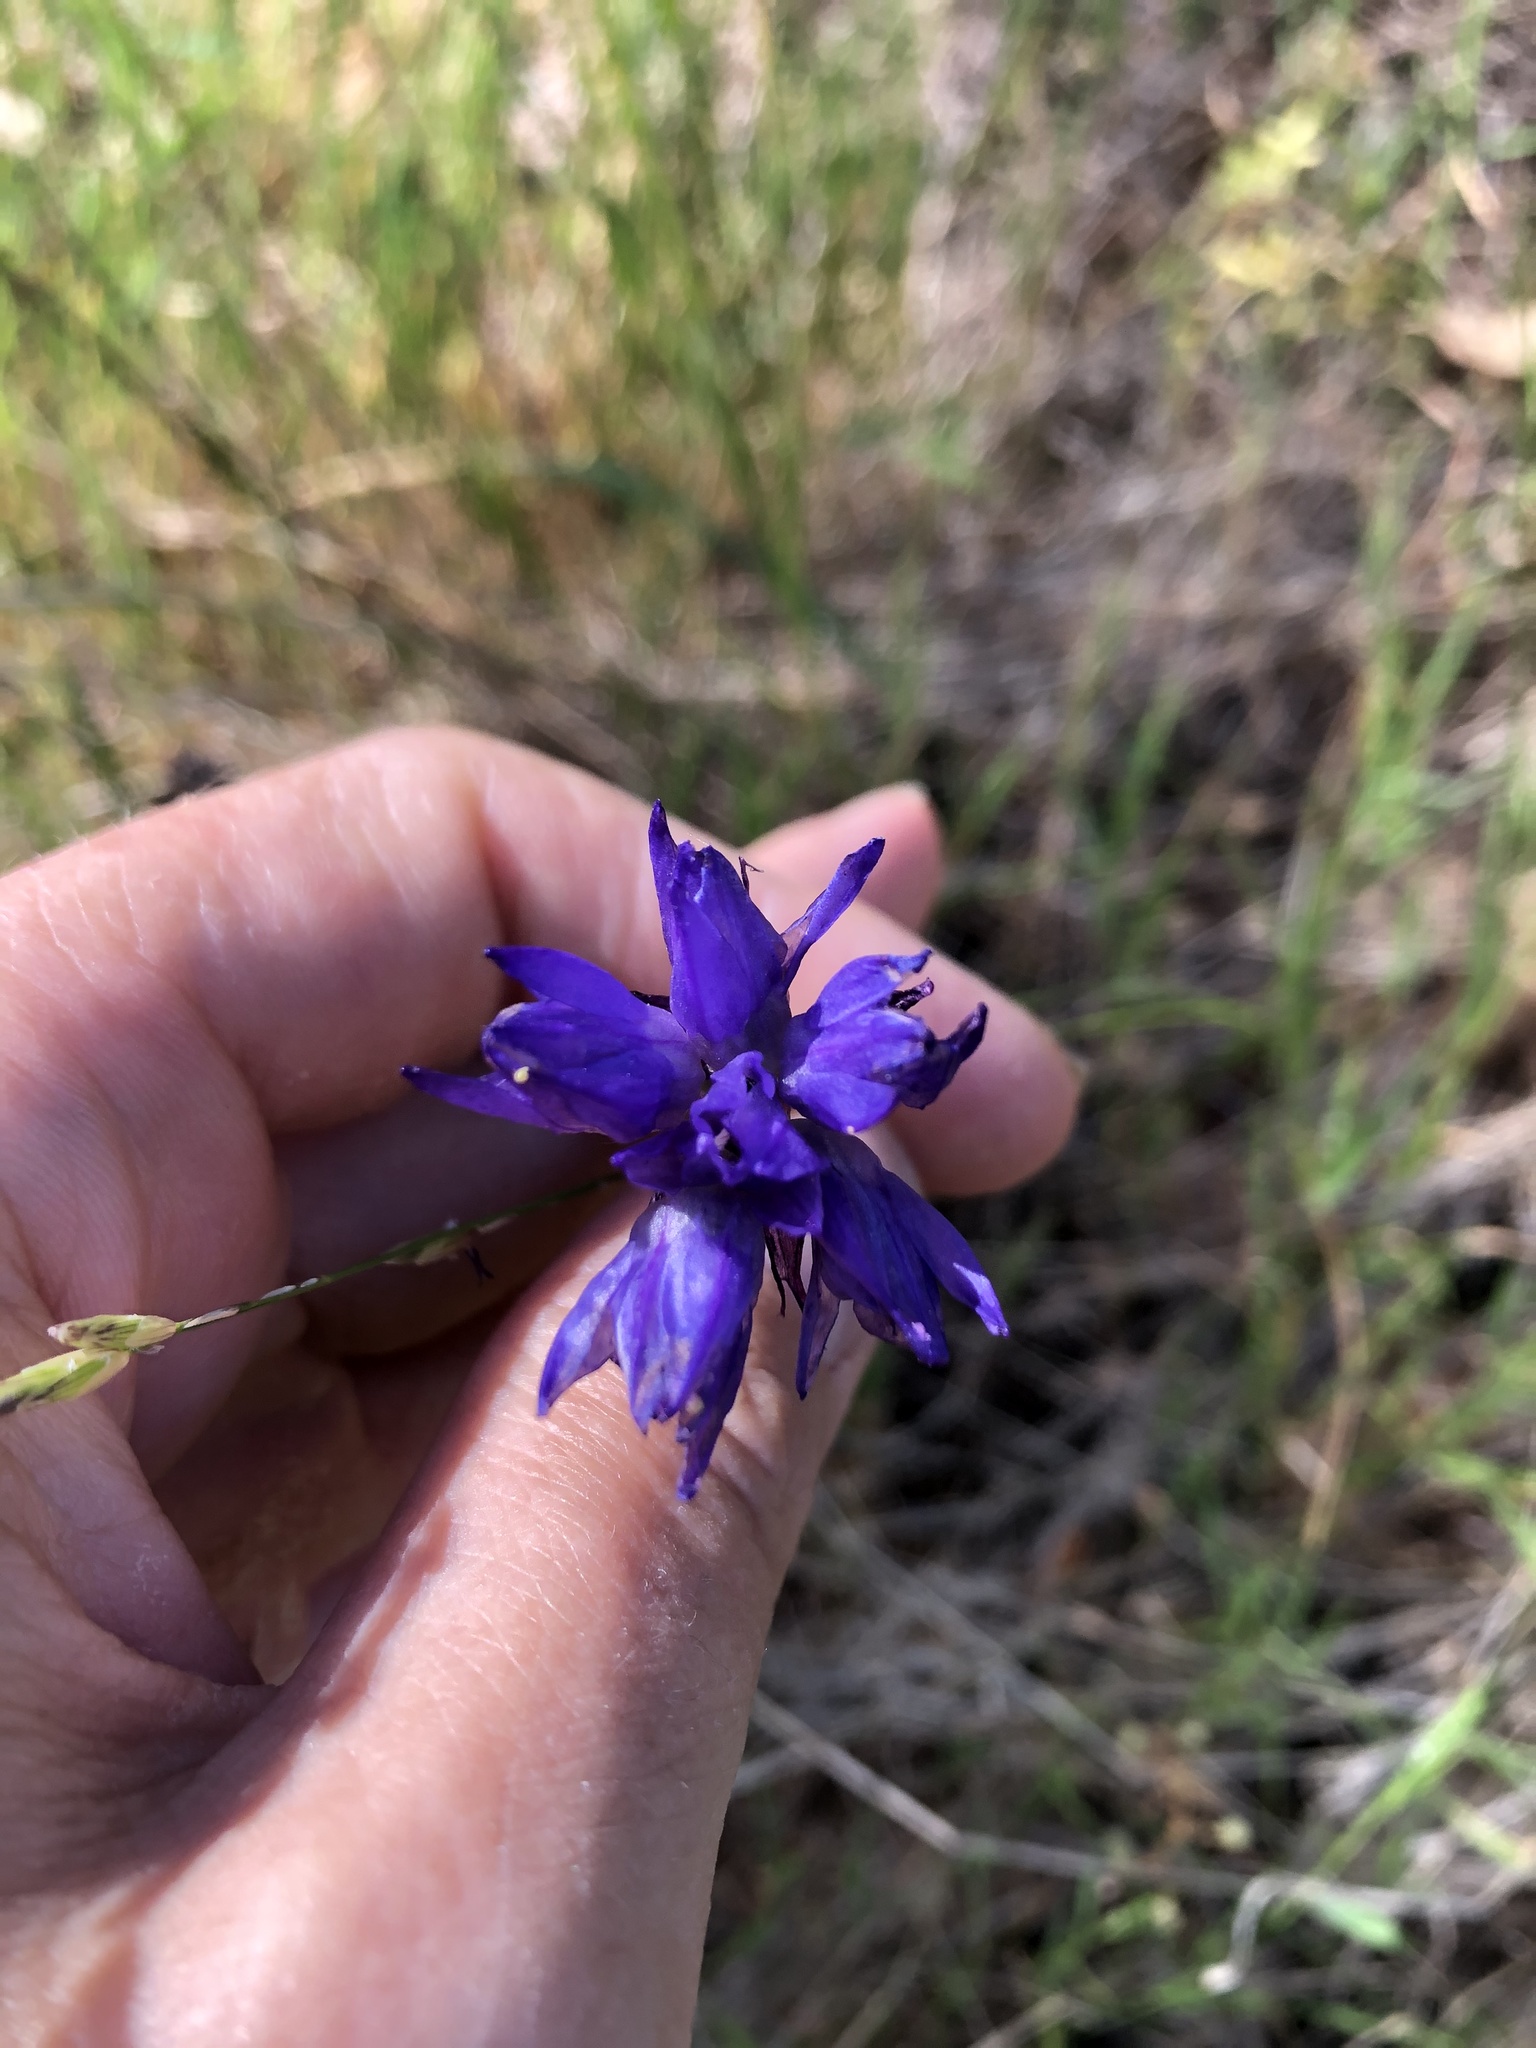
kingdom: Plantae
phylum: Tracheophyta
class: Liliopsida
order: Asparagales
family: Asparagaceae
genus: Dipterostemon
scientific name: Dipterostemon capitatus
